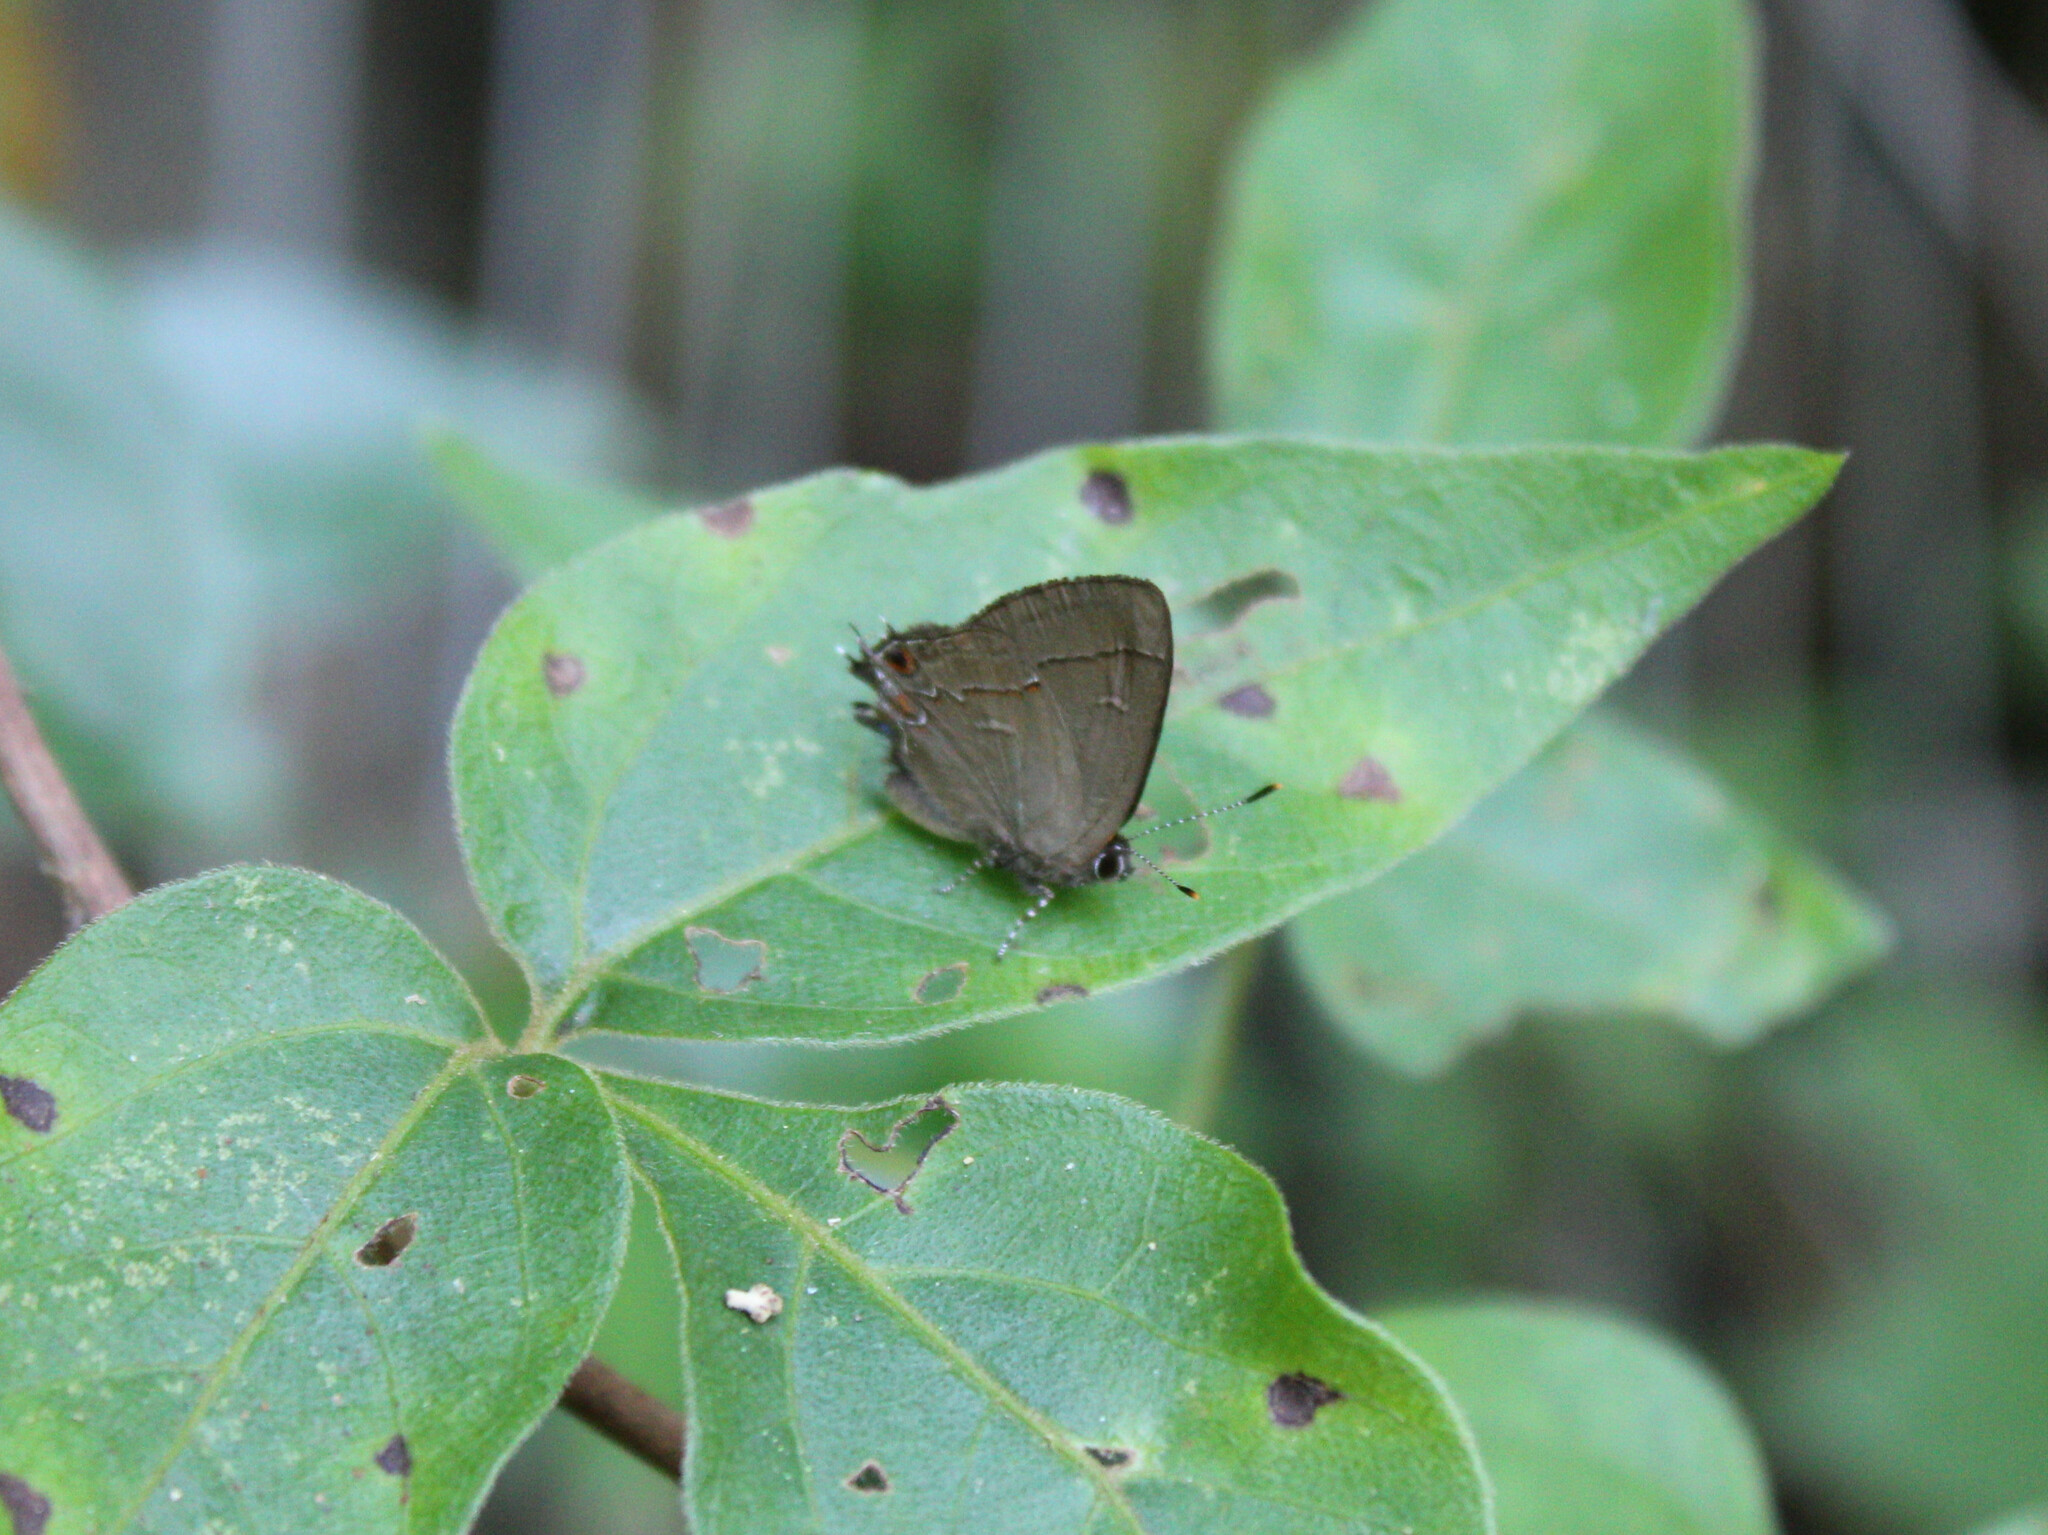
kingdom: Animalia
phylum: Arthropoda
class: Insecta
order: Lepidoptera
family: Lycaenidae
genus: Calycopis
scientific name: Calycopis
